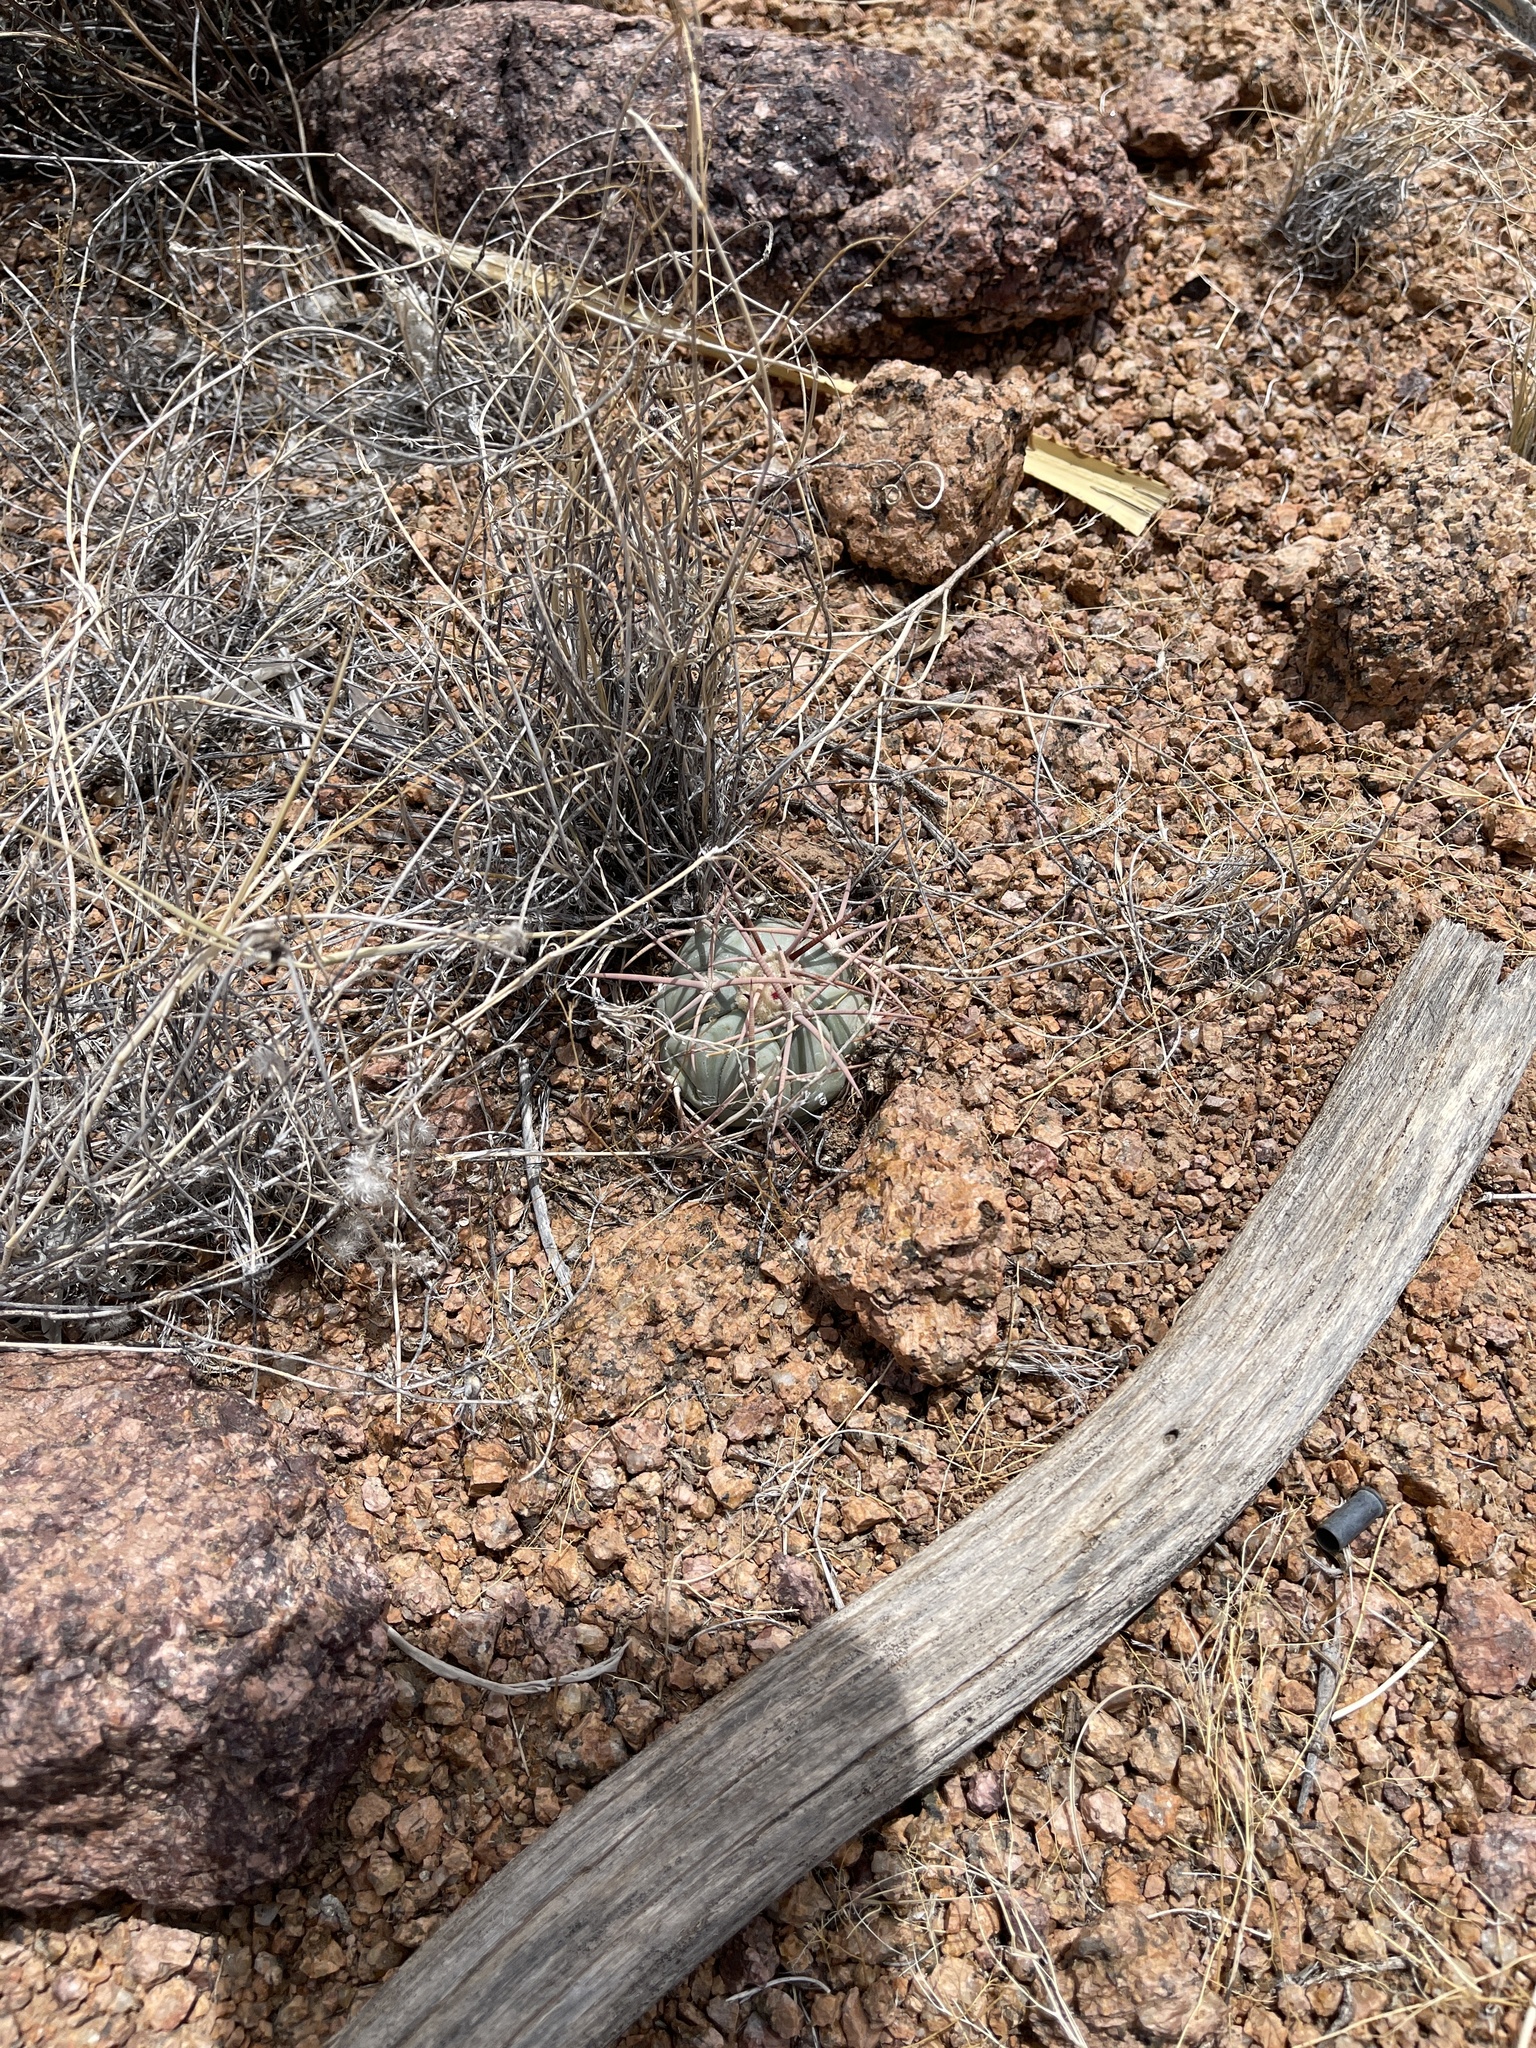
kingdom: Plantae
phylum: Tracheophyta
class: Magnoliopsida
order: Caryophyllales
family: Cactaceae
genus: Echinocactus
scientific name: Echinocactus horizonthalonius
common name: Devilshead
